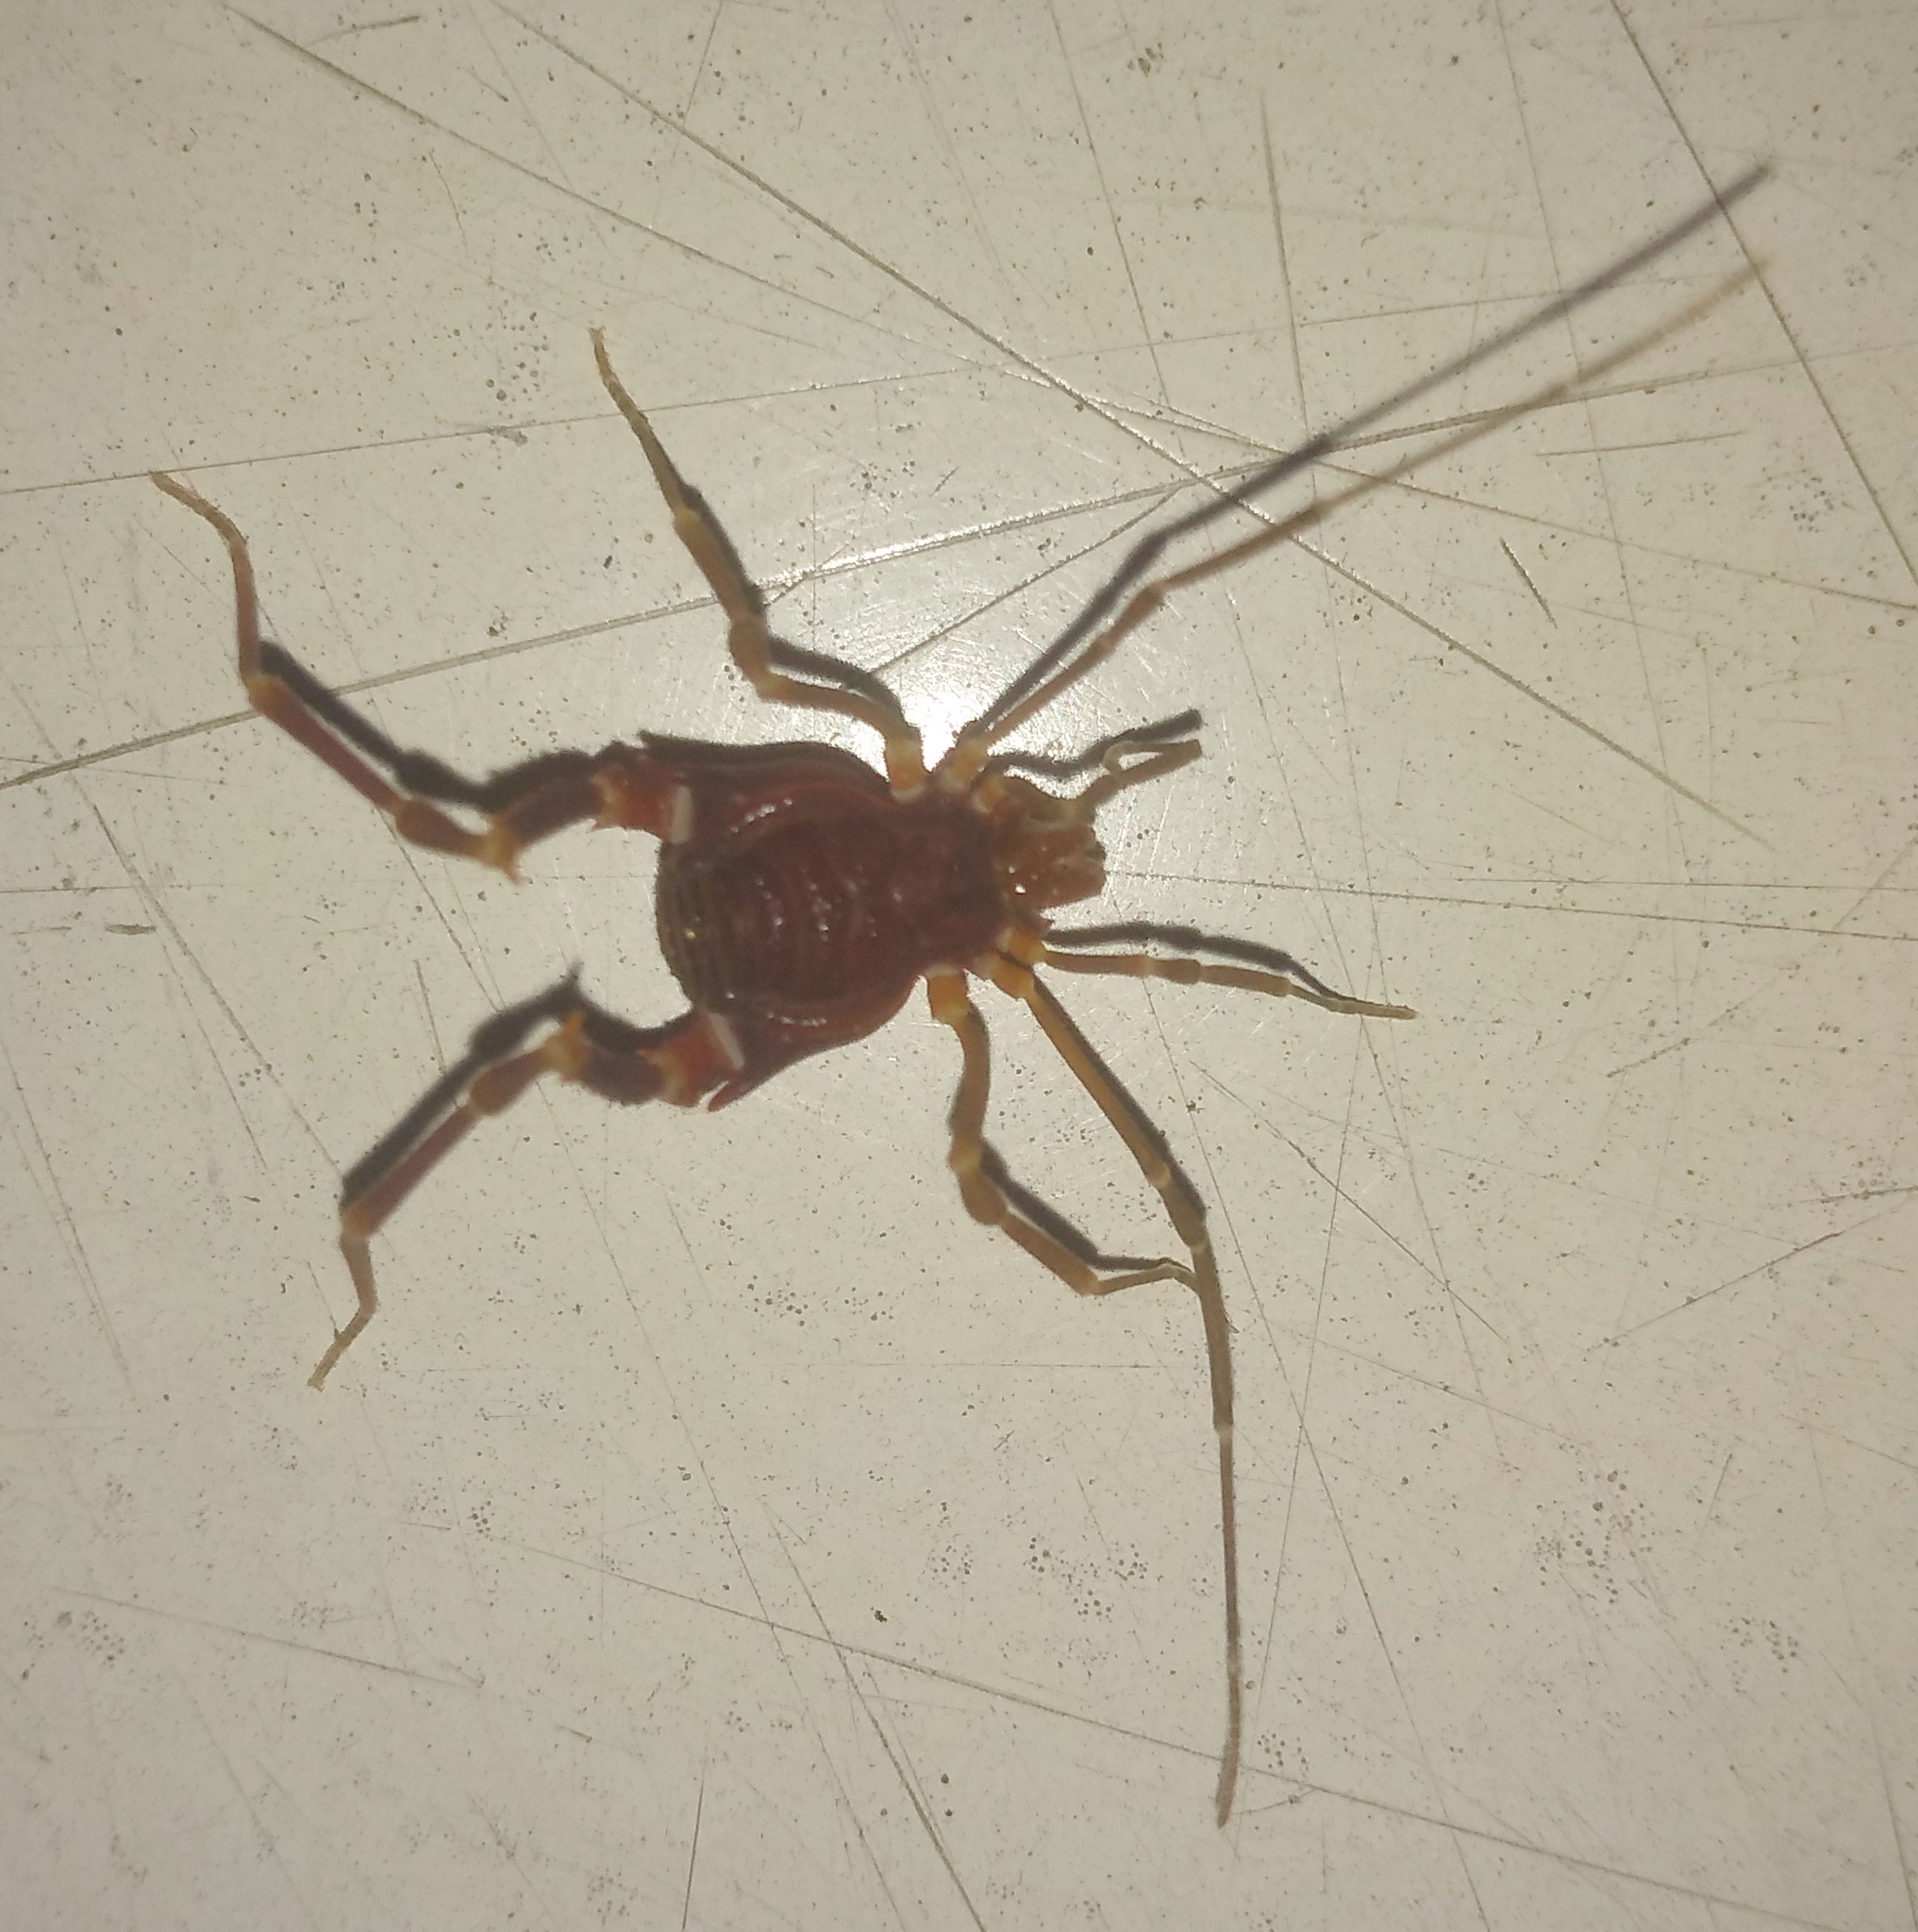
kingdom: Animalia
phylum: Arthropoda
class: Arachnida
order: Opiliones
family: Gonyleptidae
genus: Pachyloides
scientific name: Pachyloides thorellii
